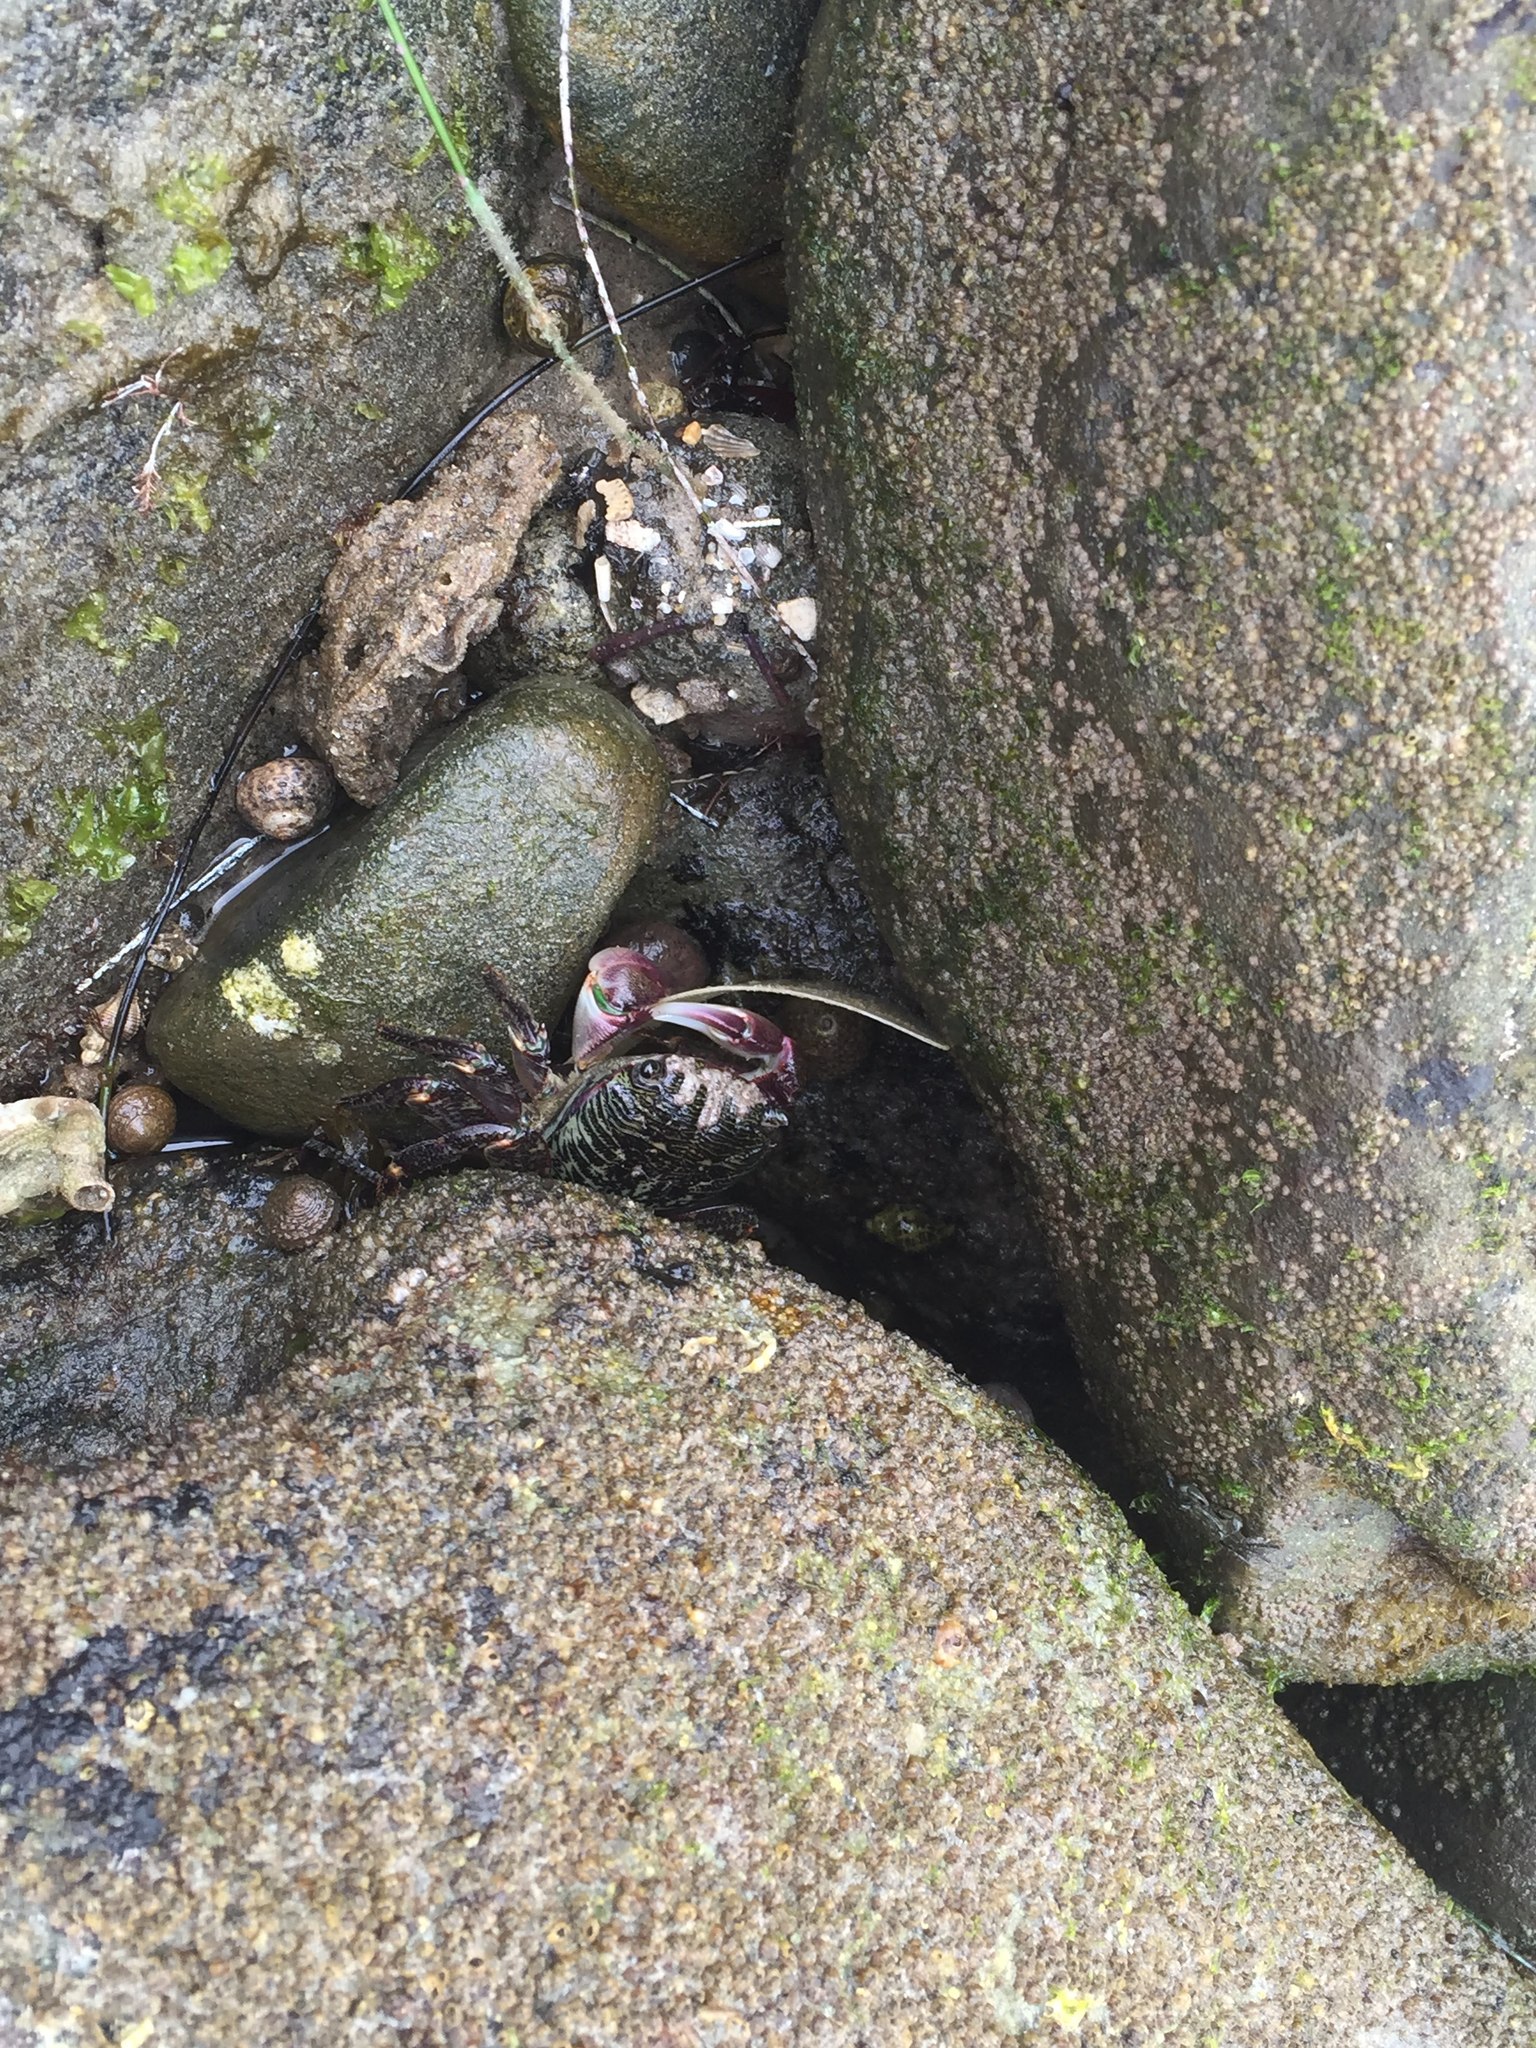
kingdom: Animalia
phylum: Arthropoda
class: Malacostraca
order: Decapoda
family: Grapsidae
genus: Pachygrapsus
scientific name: Pachygrapsus crassipes
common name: Striped shore crab
